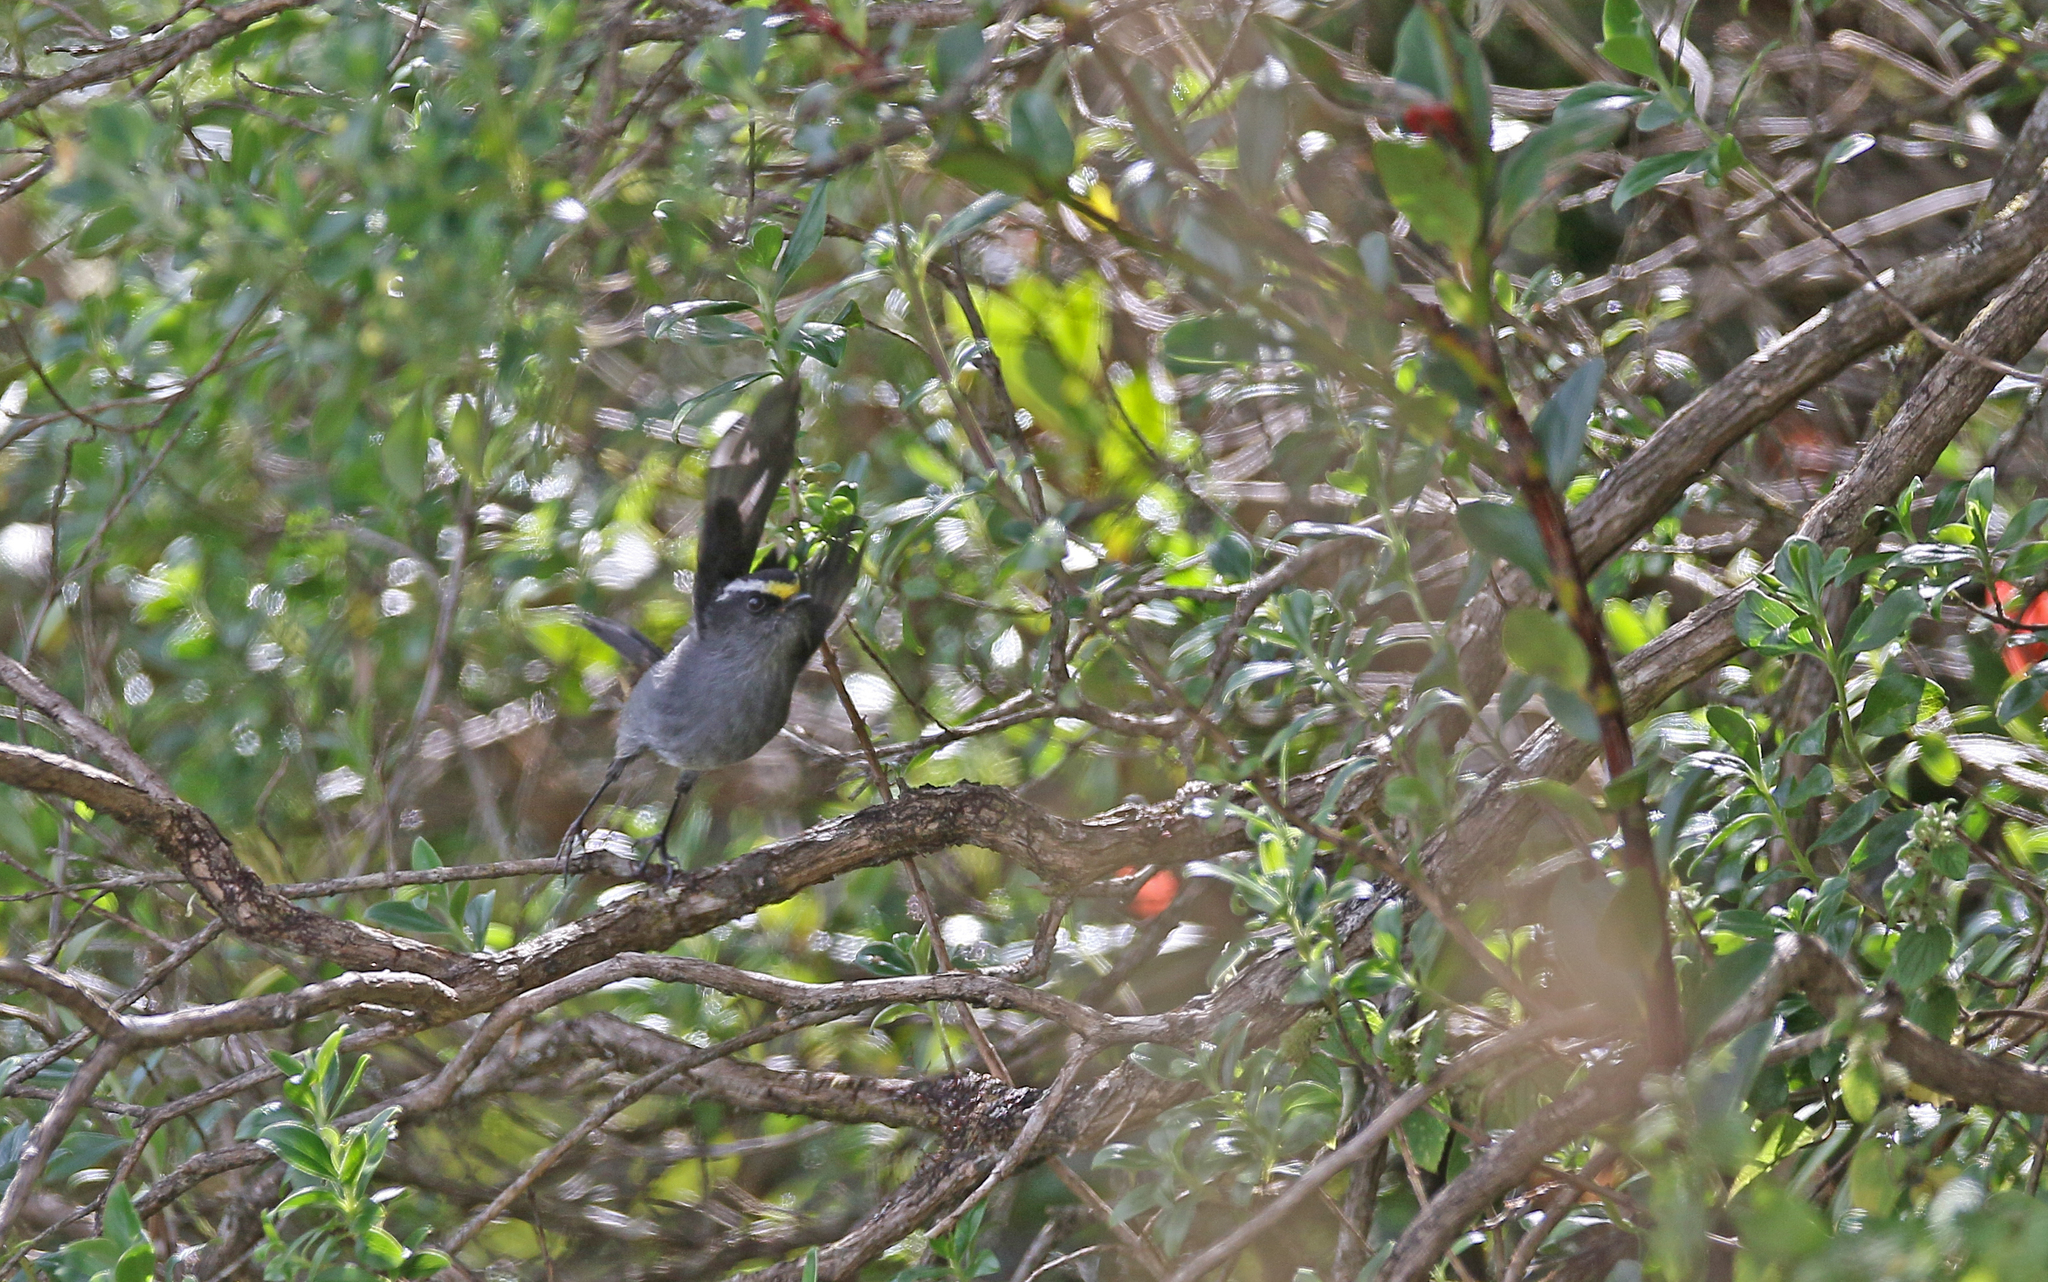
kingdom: Animalia
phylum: Chordata
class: Aves
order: Passeriformes
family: Tyrannidae
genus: Ochthoeca
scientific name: Ochthoeca frontalis
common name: Crowned chat-tyrant
